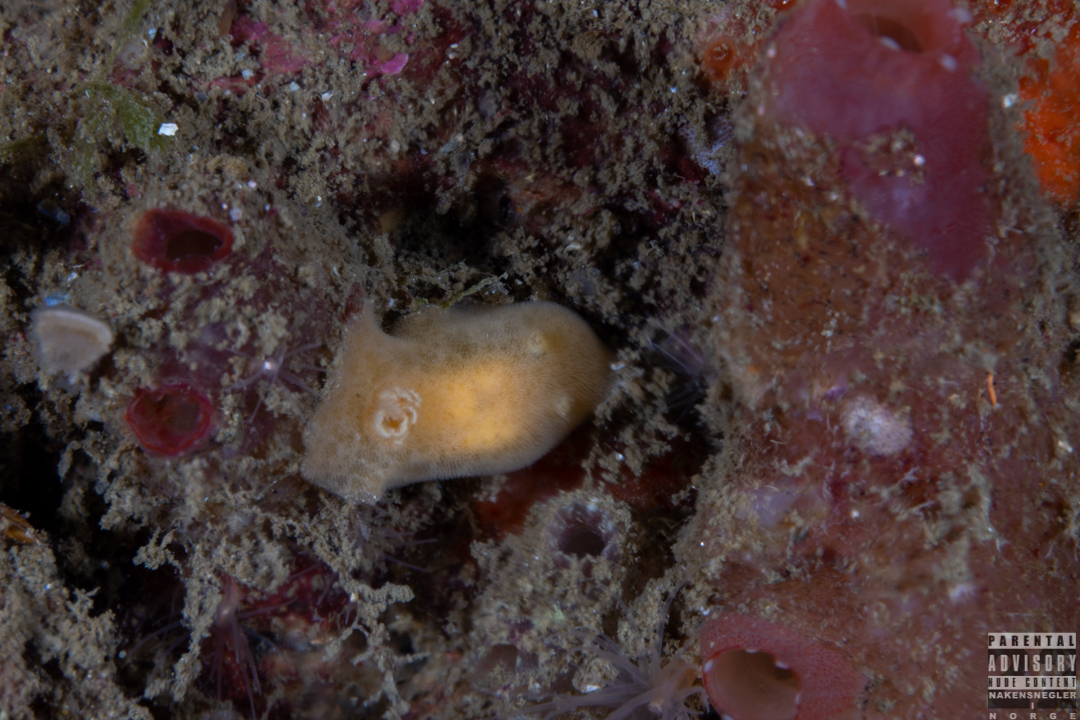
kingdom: Animalia
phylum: Mollusca
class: Gastropoda
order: Nudibranchia
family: Discodorididae
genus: Jorunna
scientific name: Jorunna tomentosa
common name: Grey sea slug
